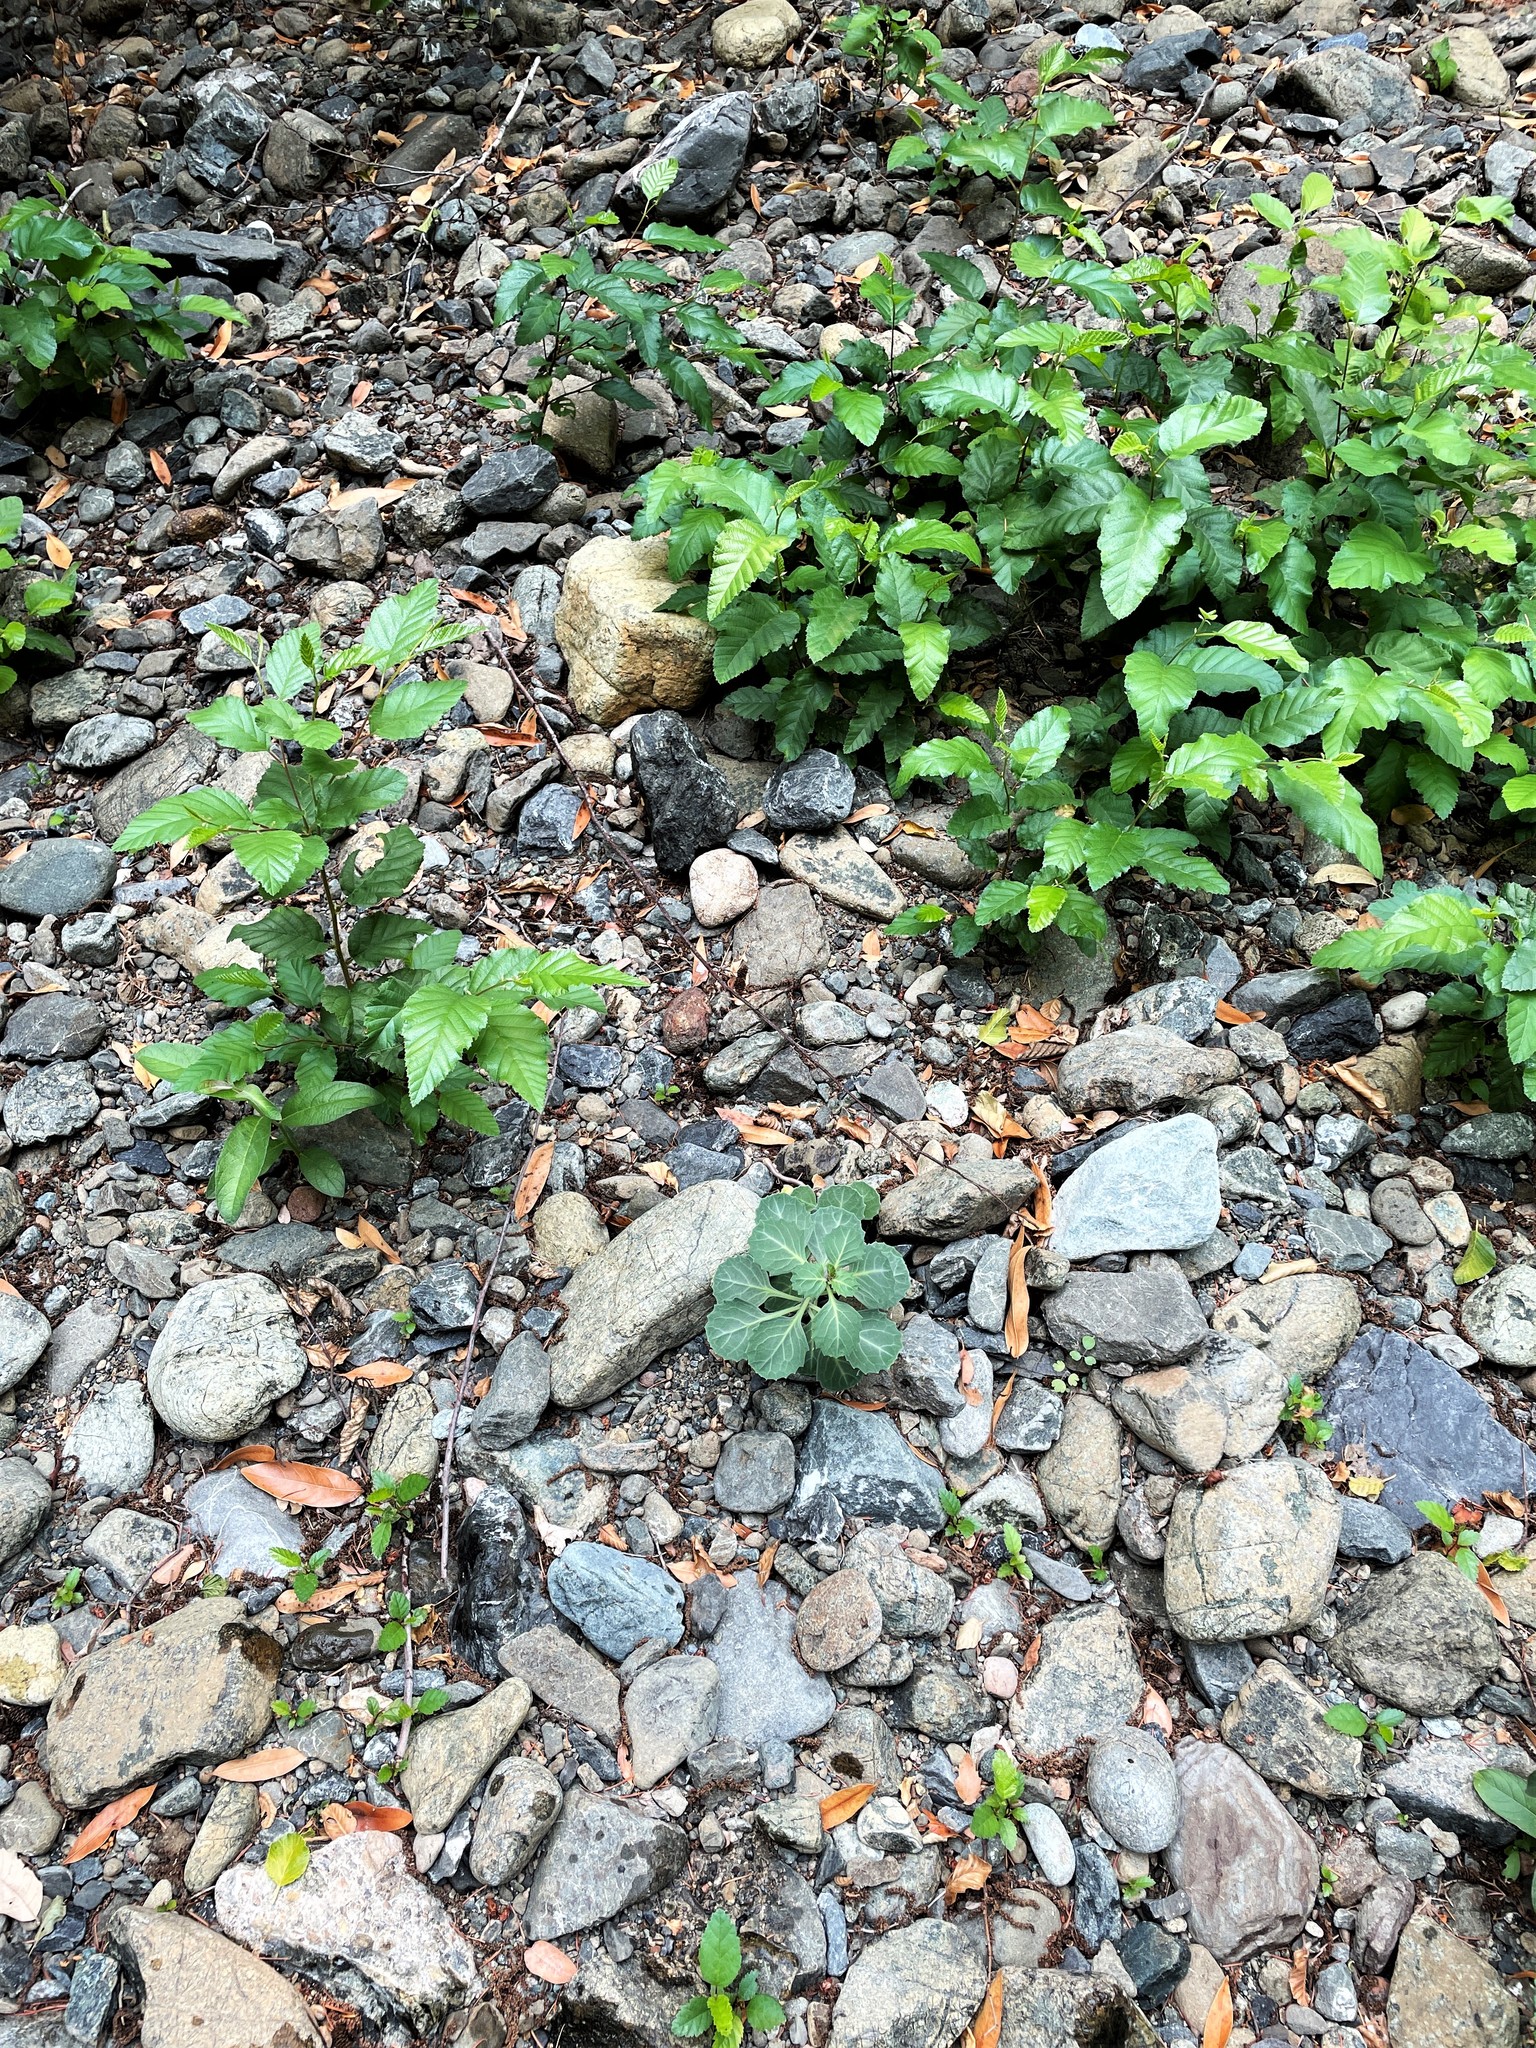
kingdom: Plantae
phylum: Tracheophyta
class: Magnoliopsida
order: Brassicales
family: Brassicaceae
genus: Streptanthus
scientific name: Streptanthus morrisonii
